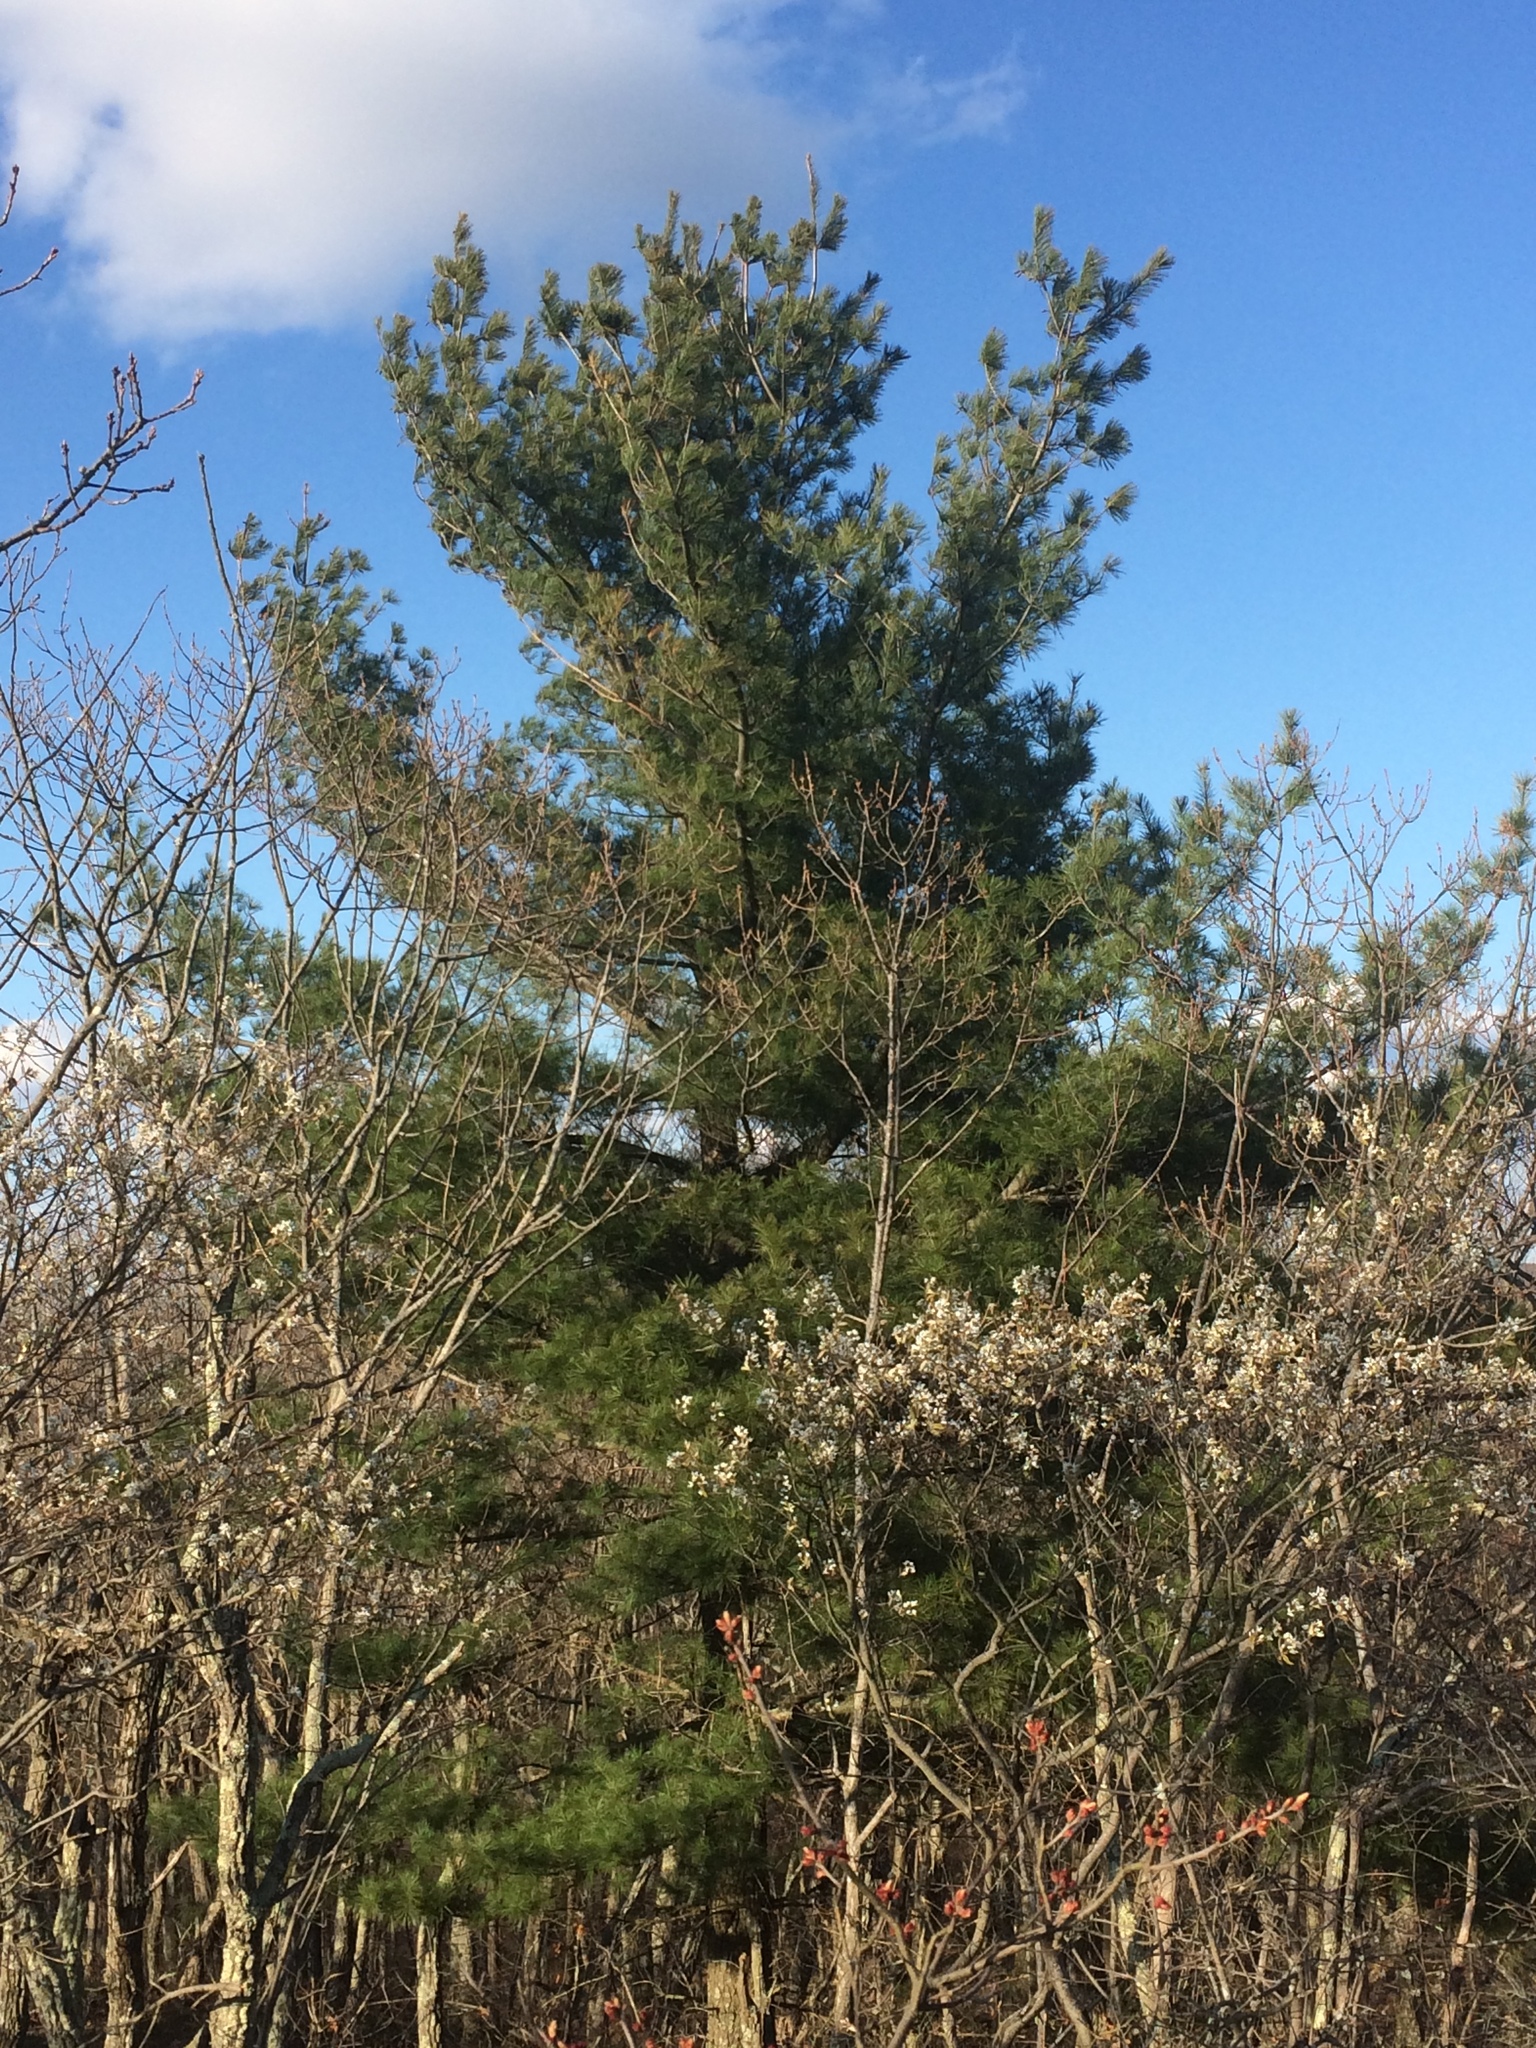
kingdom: Plantae
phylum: Tracheophyta
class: Pinopsida
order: Pinales
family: Pinaceae
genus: Pinus
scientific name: Pinus strobus
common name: Weymouth pine
